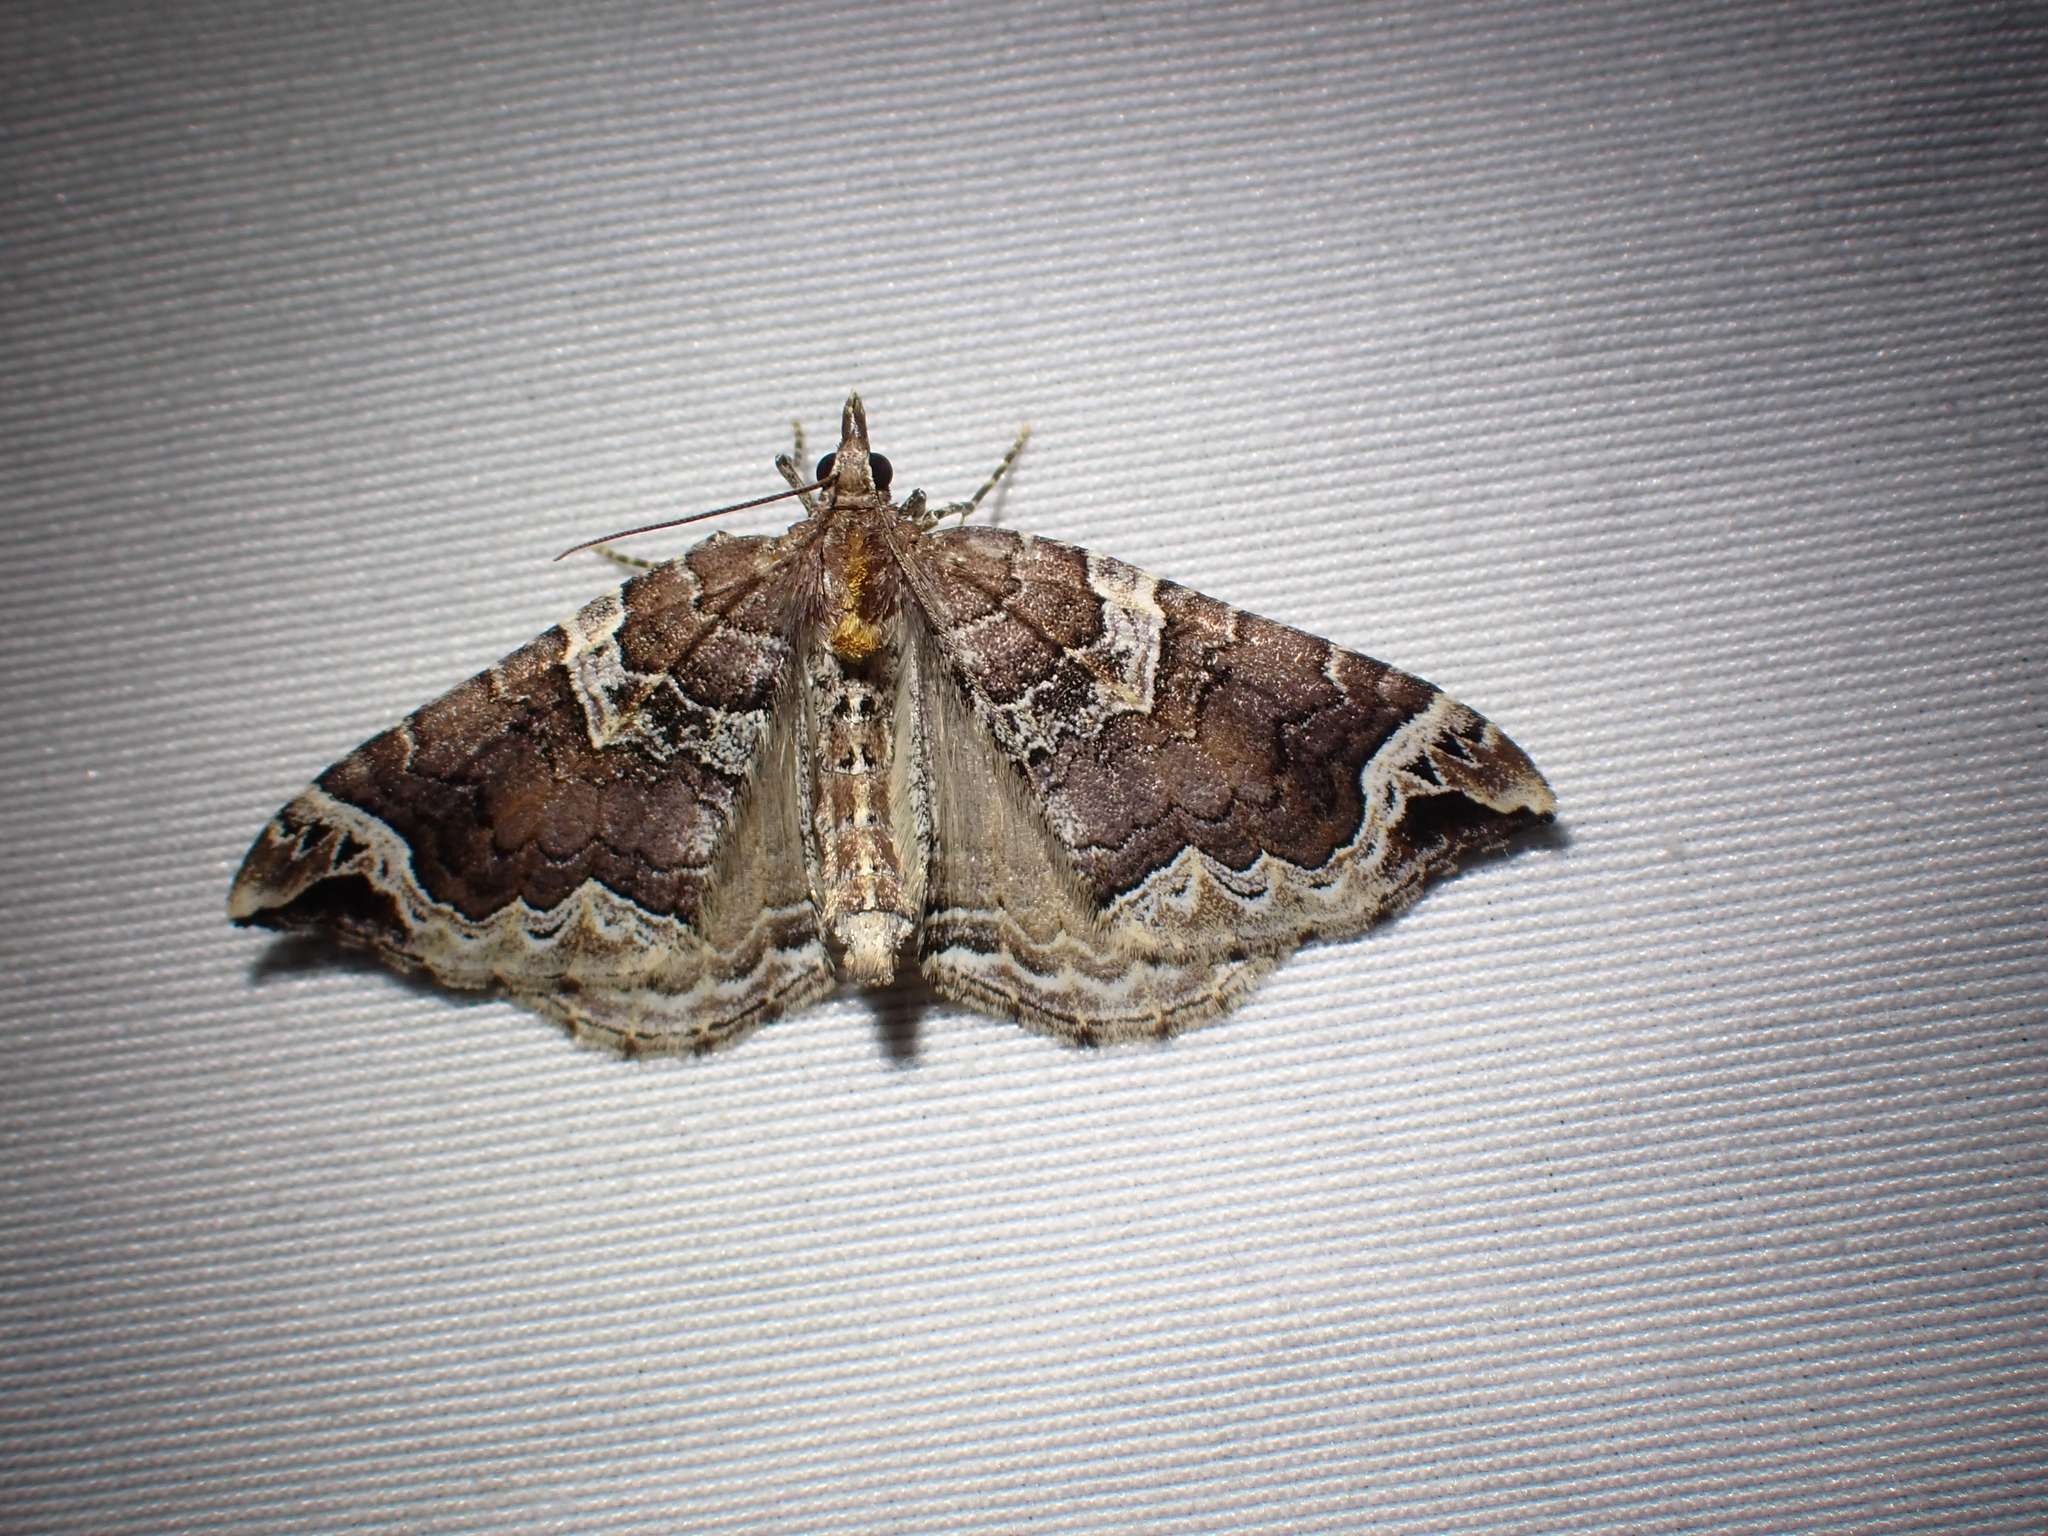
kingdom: Animalia
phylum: Arthropoda
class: Insecta
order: Lepidoptera
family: Geometridae
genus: Eulithis
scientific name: Eulithis xylina
